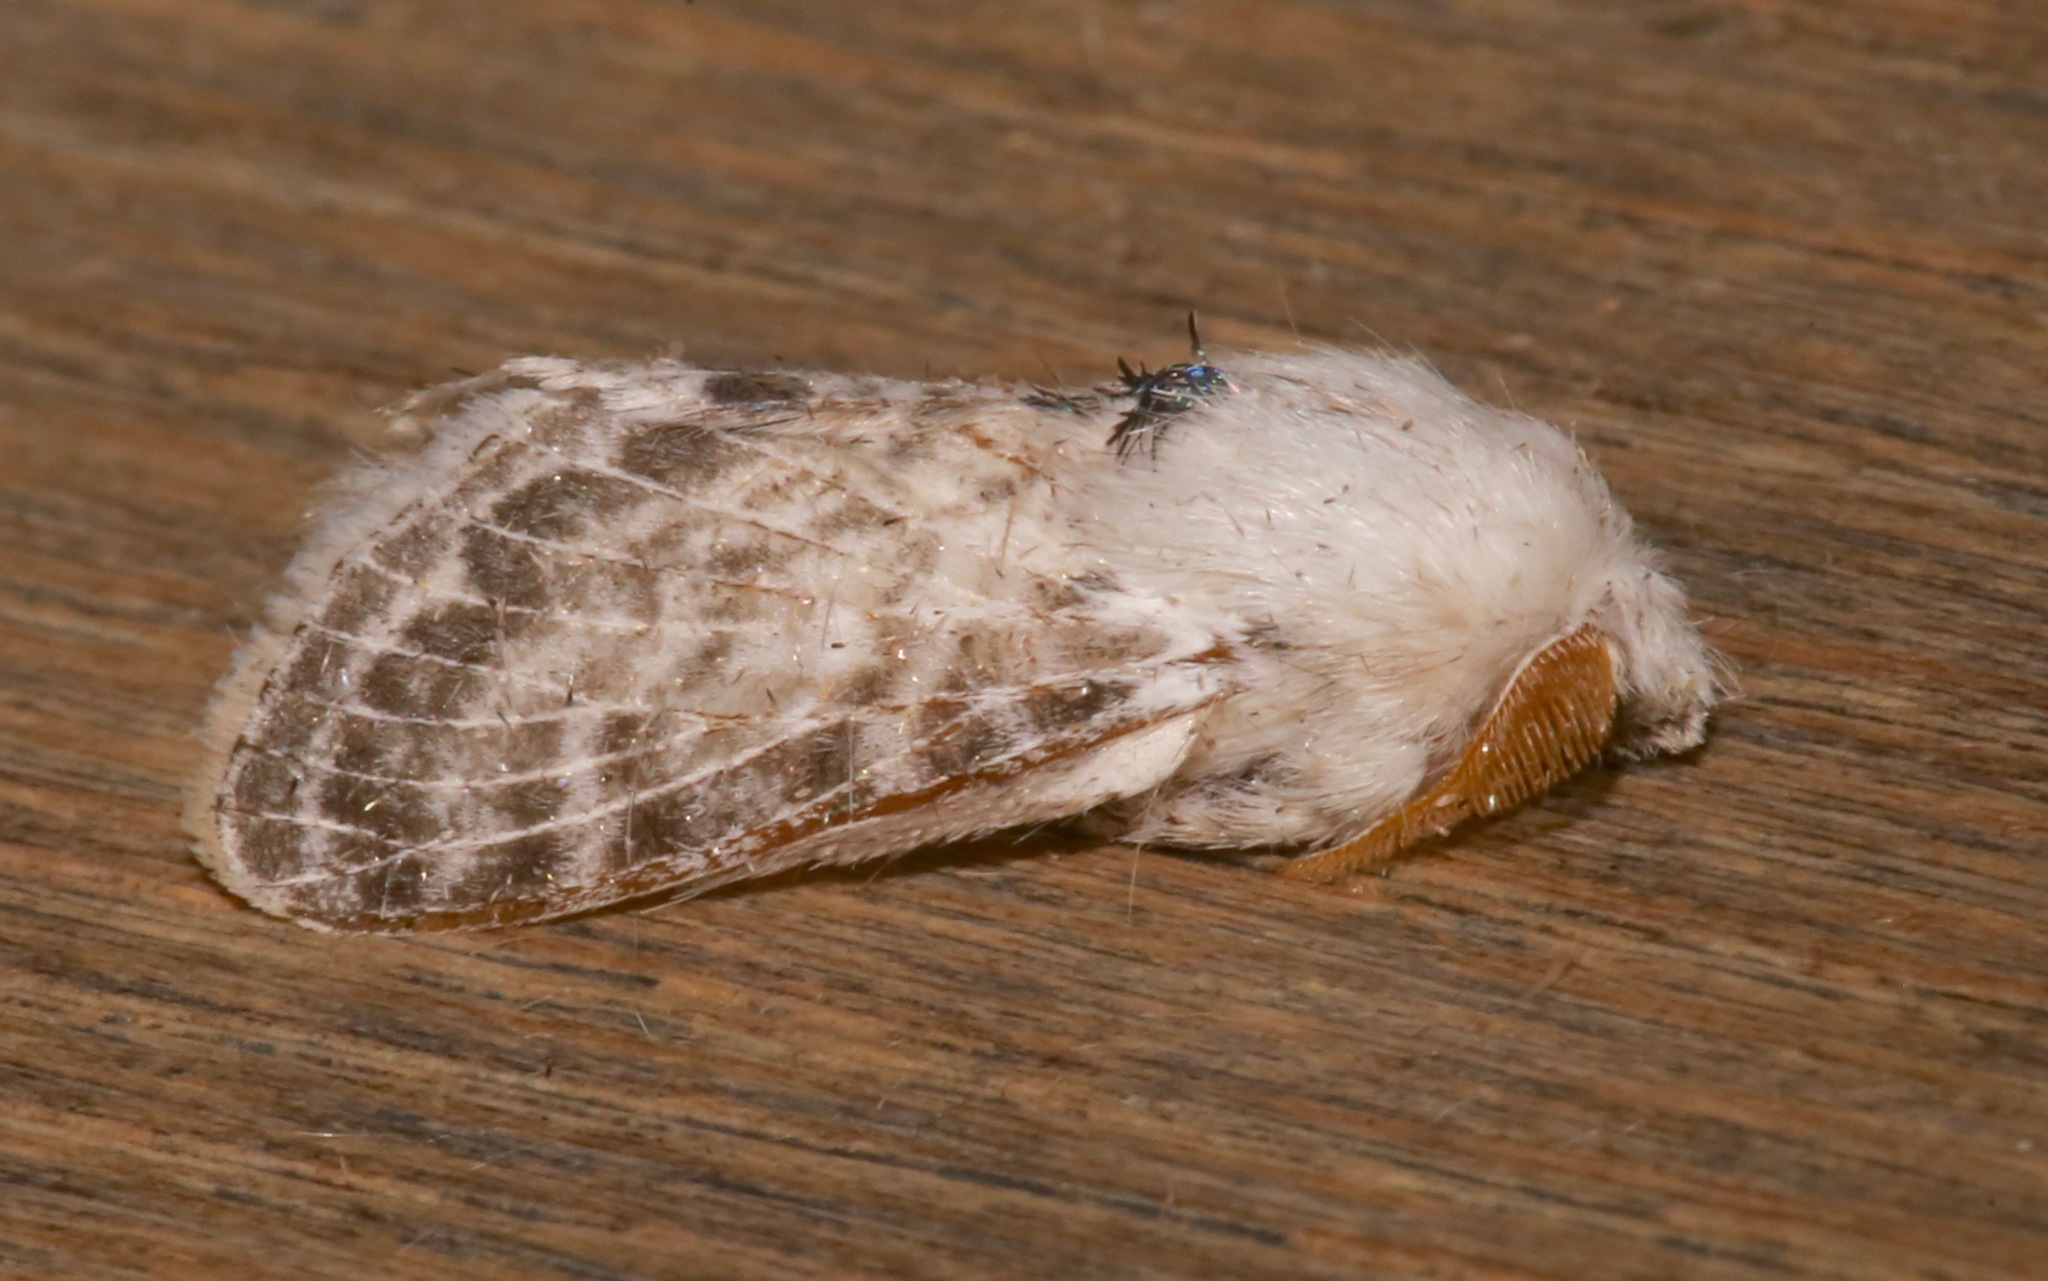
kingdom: Animalia
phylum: Arthropoda
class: Insecta
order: Lepidoptera
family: Lasiocampidae
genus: Apotolype
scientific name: Apotolype brevicrista
